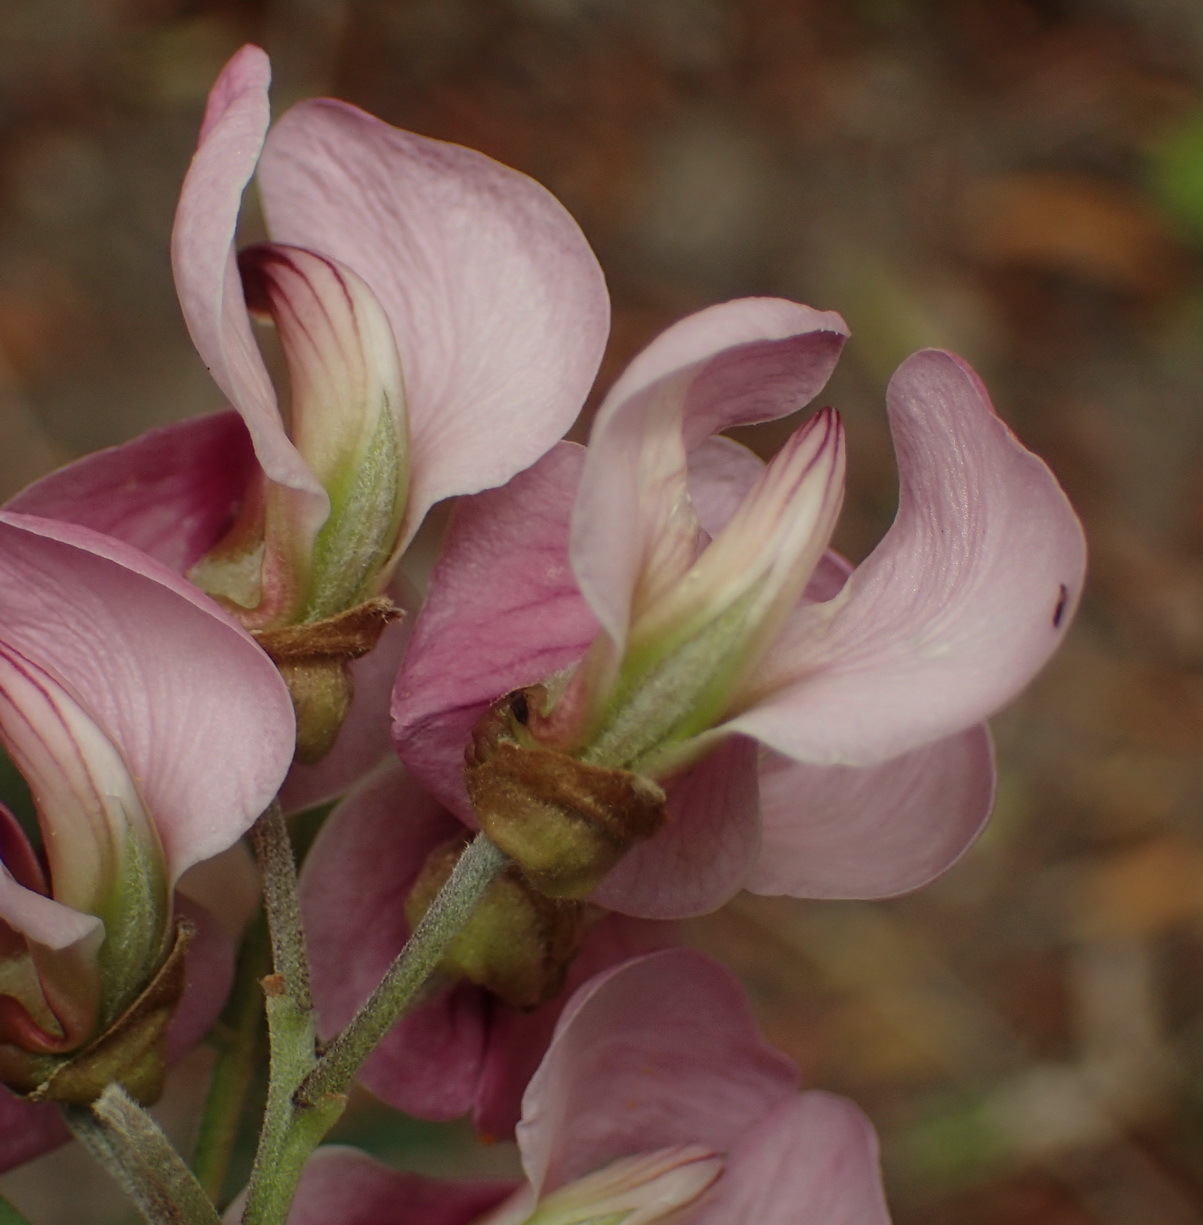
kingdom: Plantae
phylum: Tracheophyta
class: Magnoliopsida
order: Fabales
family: Fabaceae
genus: Virgilia
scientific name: Virgilia divaricata
